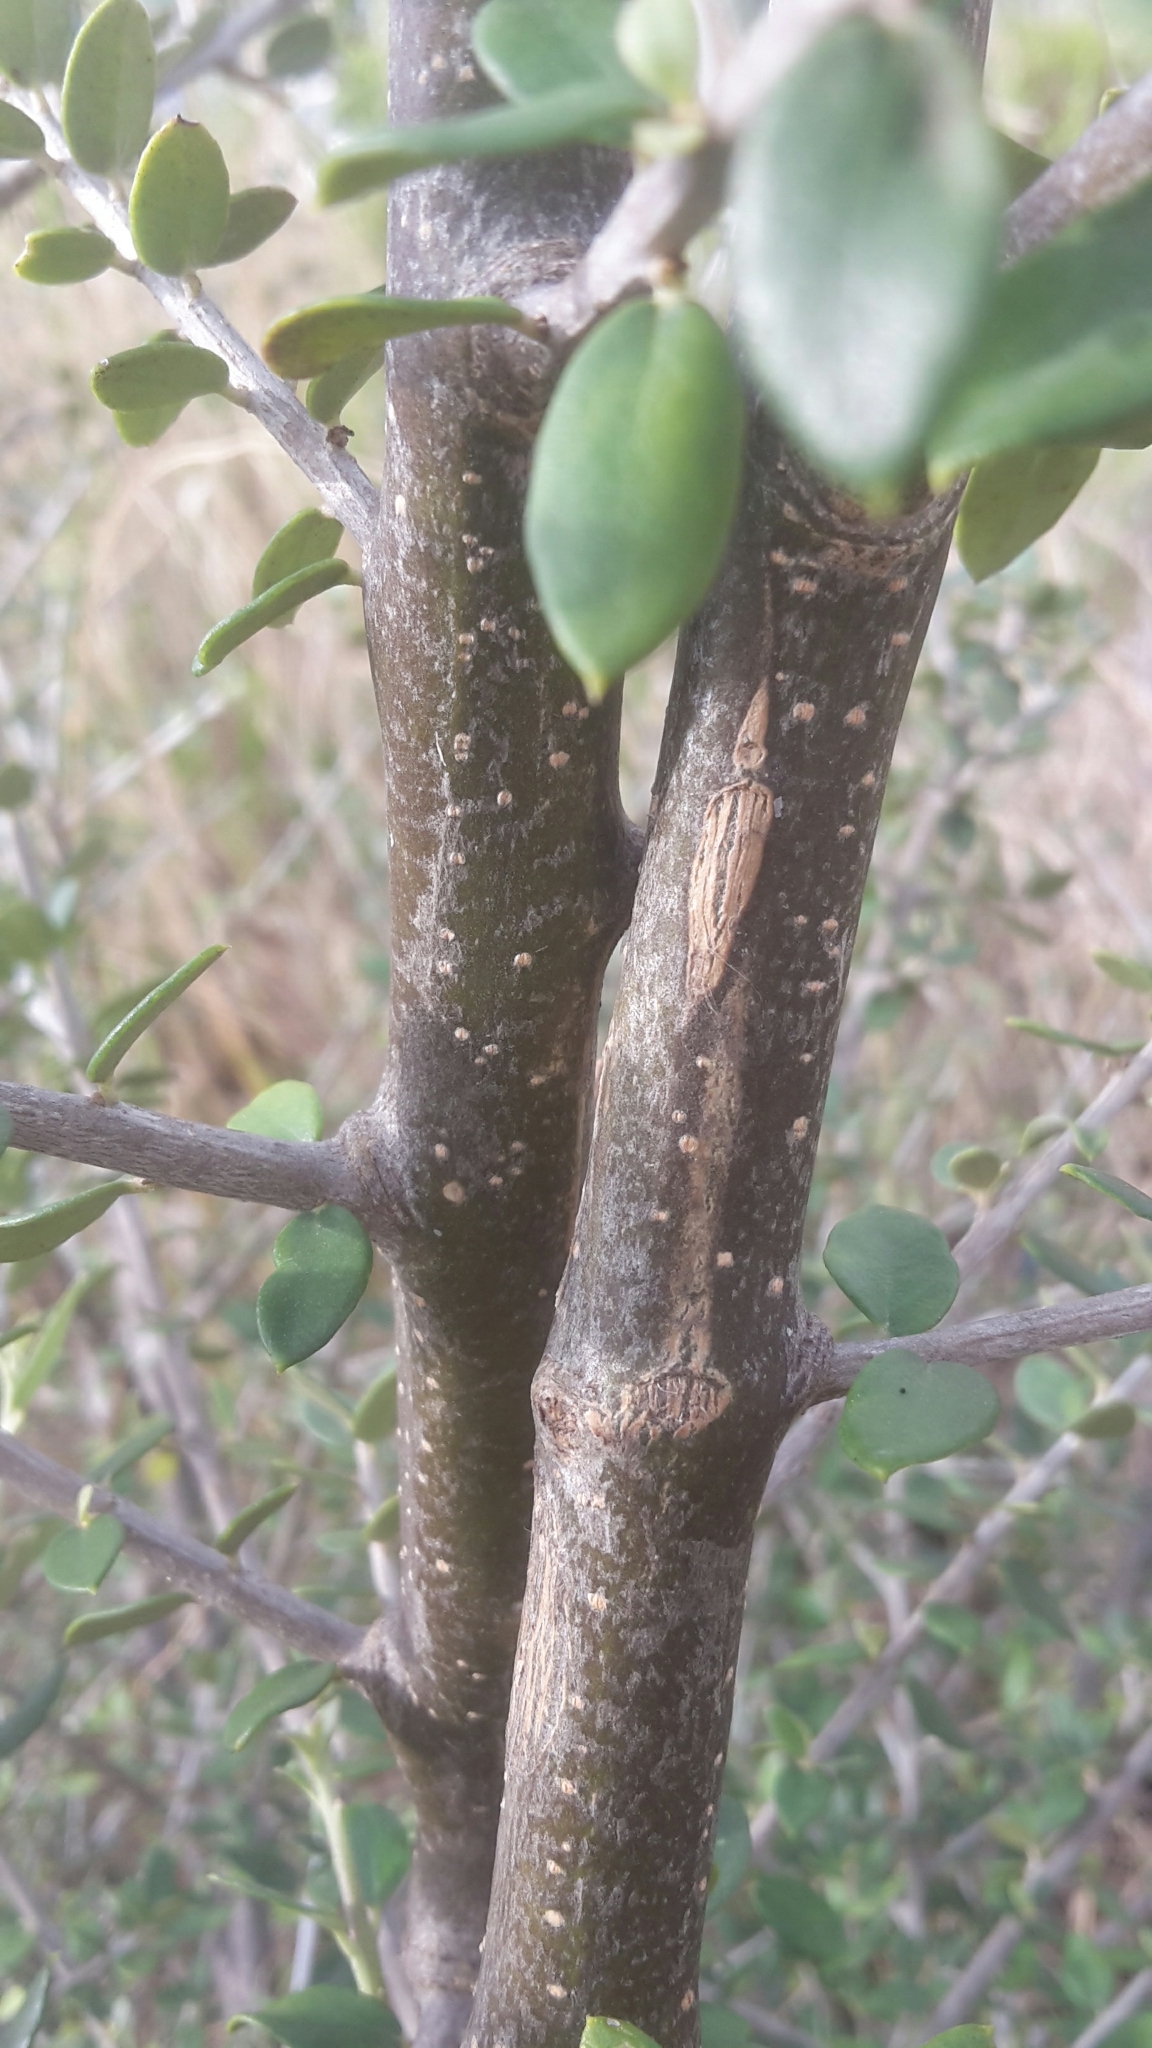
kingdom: Plantae
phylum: Tracheophyta
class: Magnoliopsida
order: Lamiales
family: Oleaceae
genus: Olea
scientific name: Olea europaea
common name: Olive
